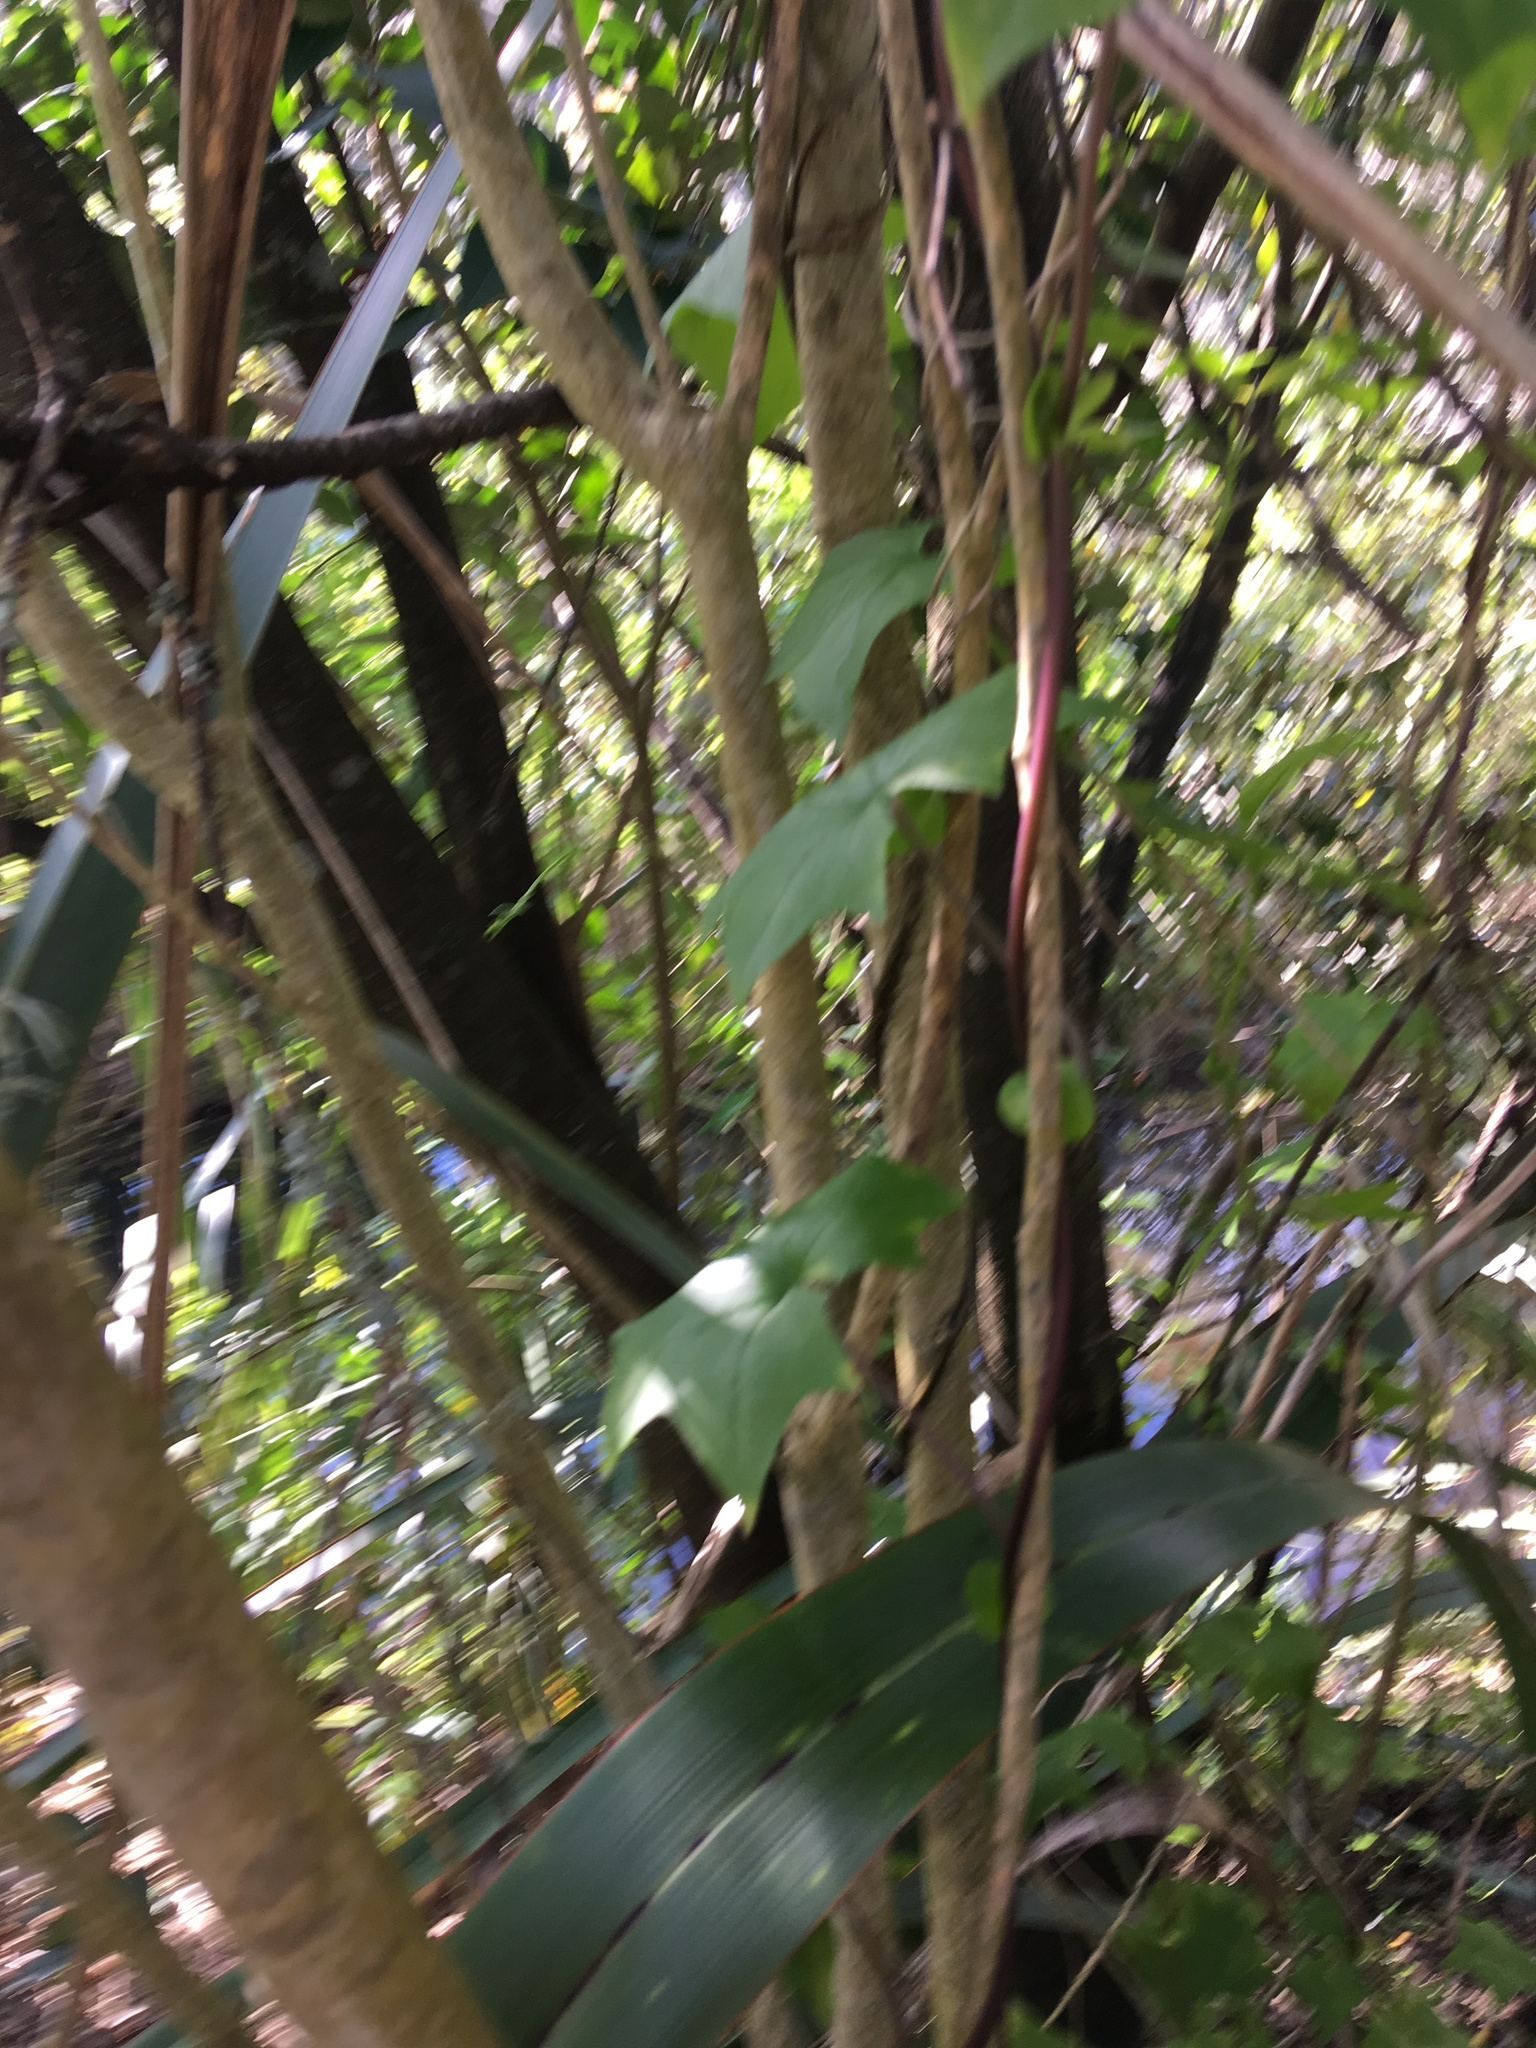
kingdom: Plantae
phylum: Tracheophyta
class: Magnoliopsida
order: Asterales
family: Asteraceae
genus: Delairea
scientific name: Delairea odorata
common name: Cape-ivy
